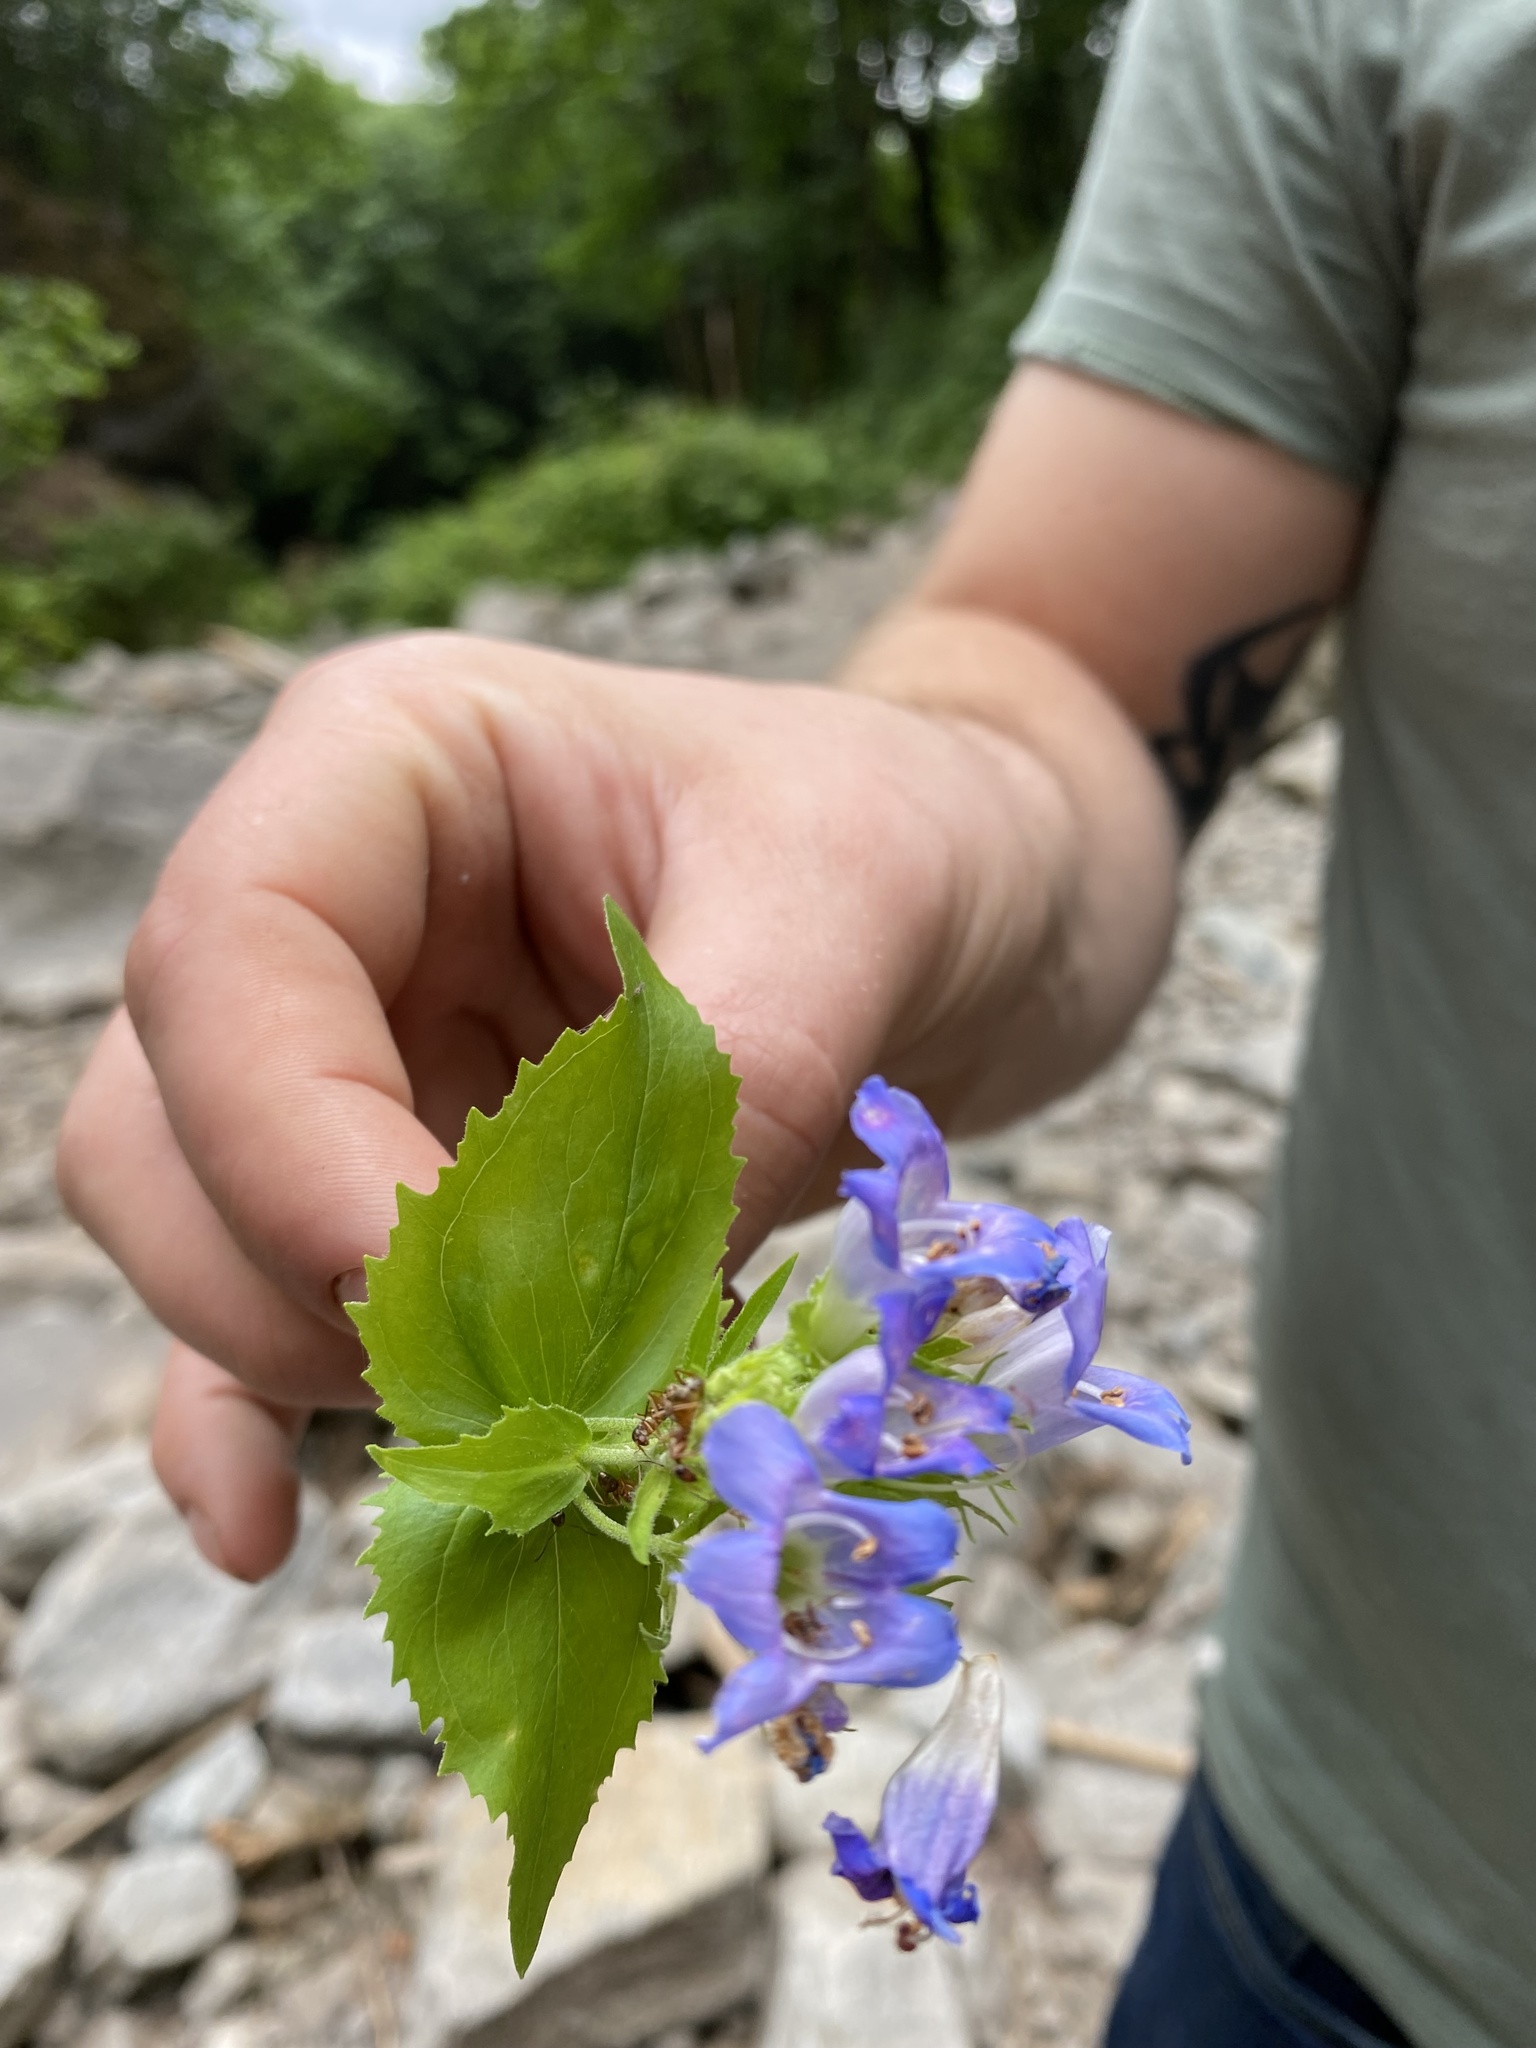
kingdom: Plantae
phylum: Tracheophyta
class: Magnoliopsida
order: Lamiales
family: Plantaginaceae
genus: Penstemon
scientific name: Penstemon serrulatus
